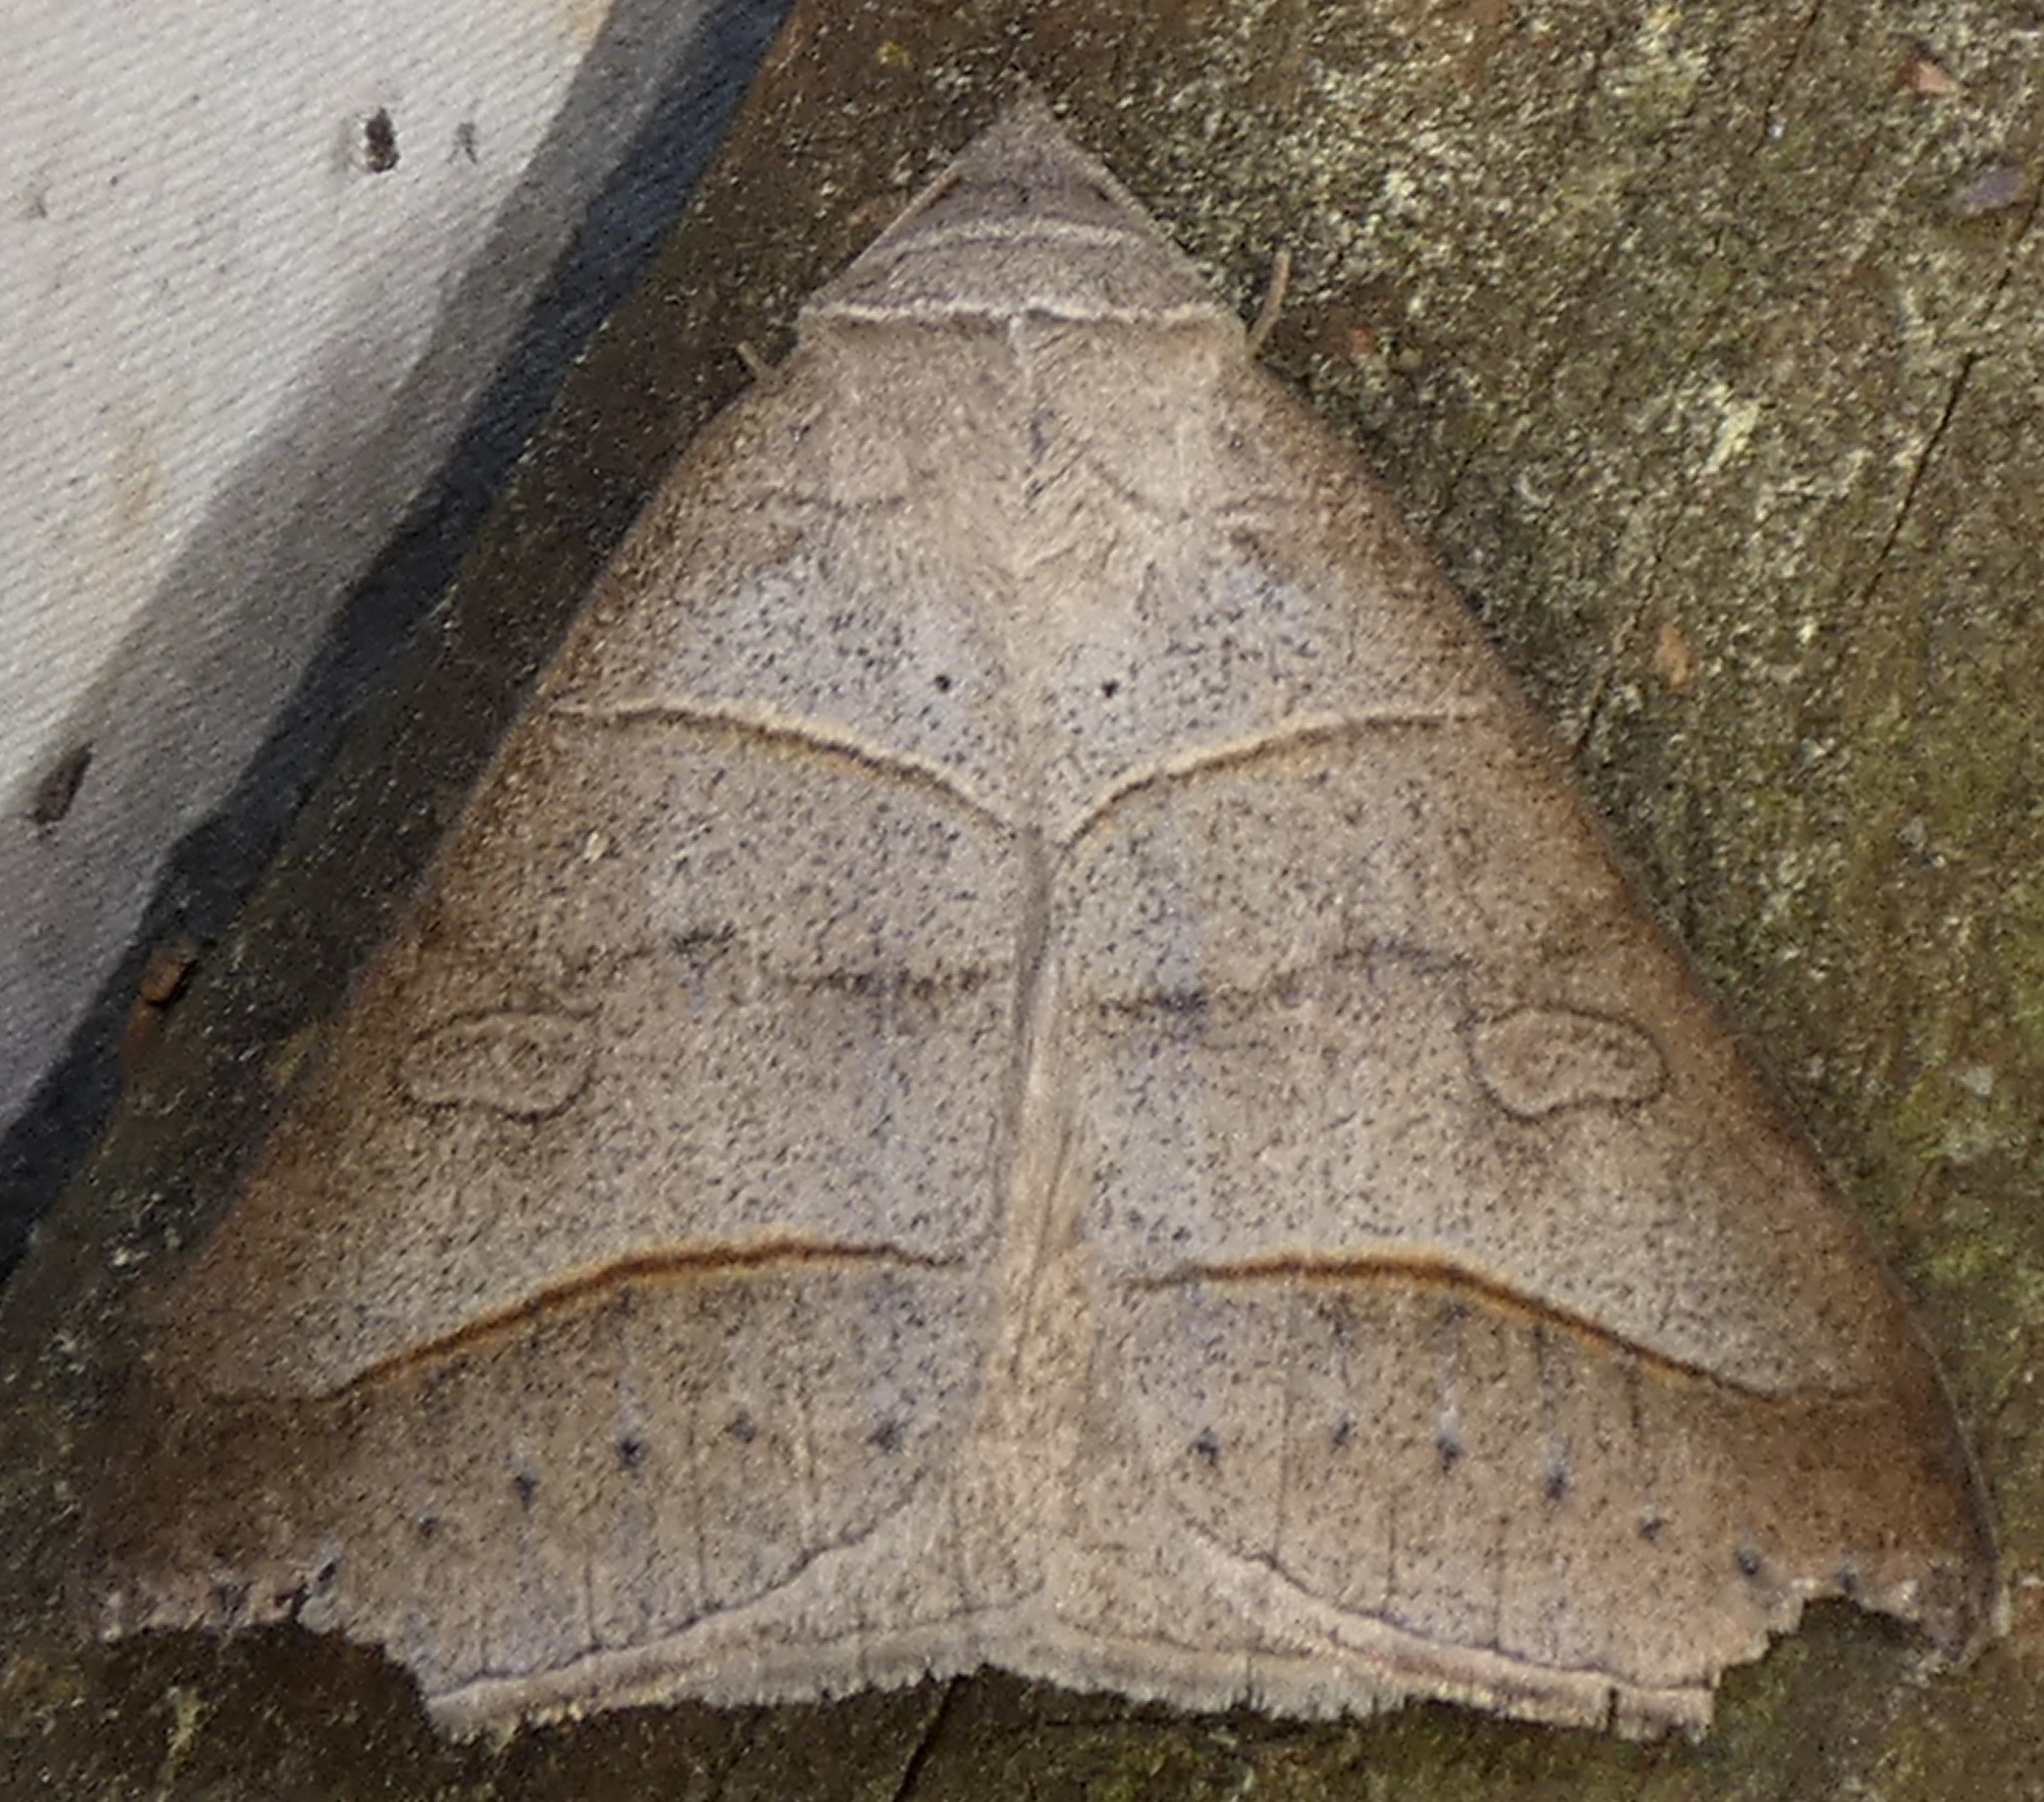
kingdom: Animalia
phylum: Arthropoda
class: Insecta
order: Lepidoptera
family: Erebidae
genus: Mocis
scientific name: Mocis texana
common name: Texas mocis moth
